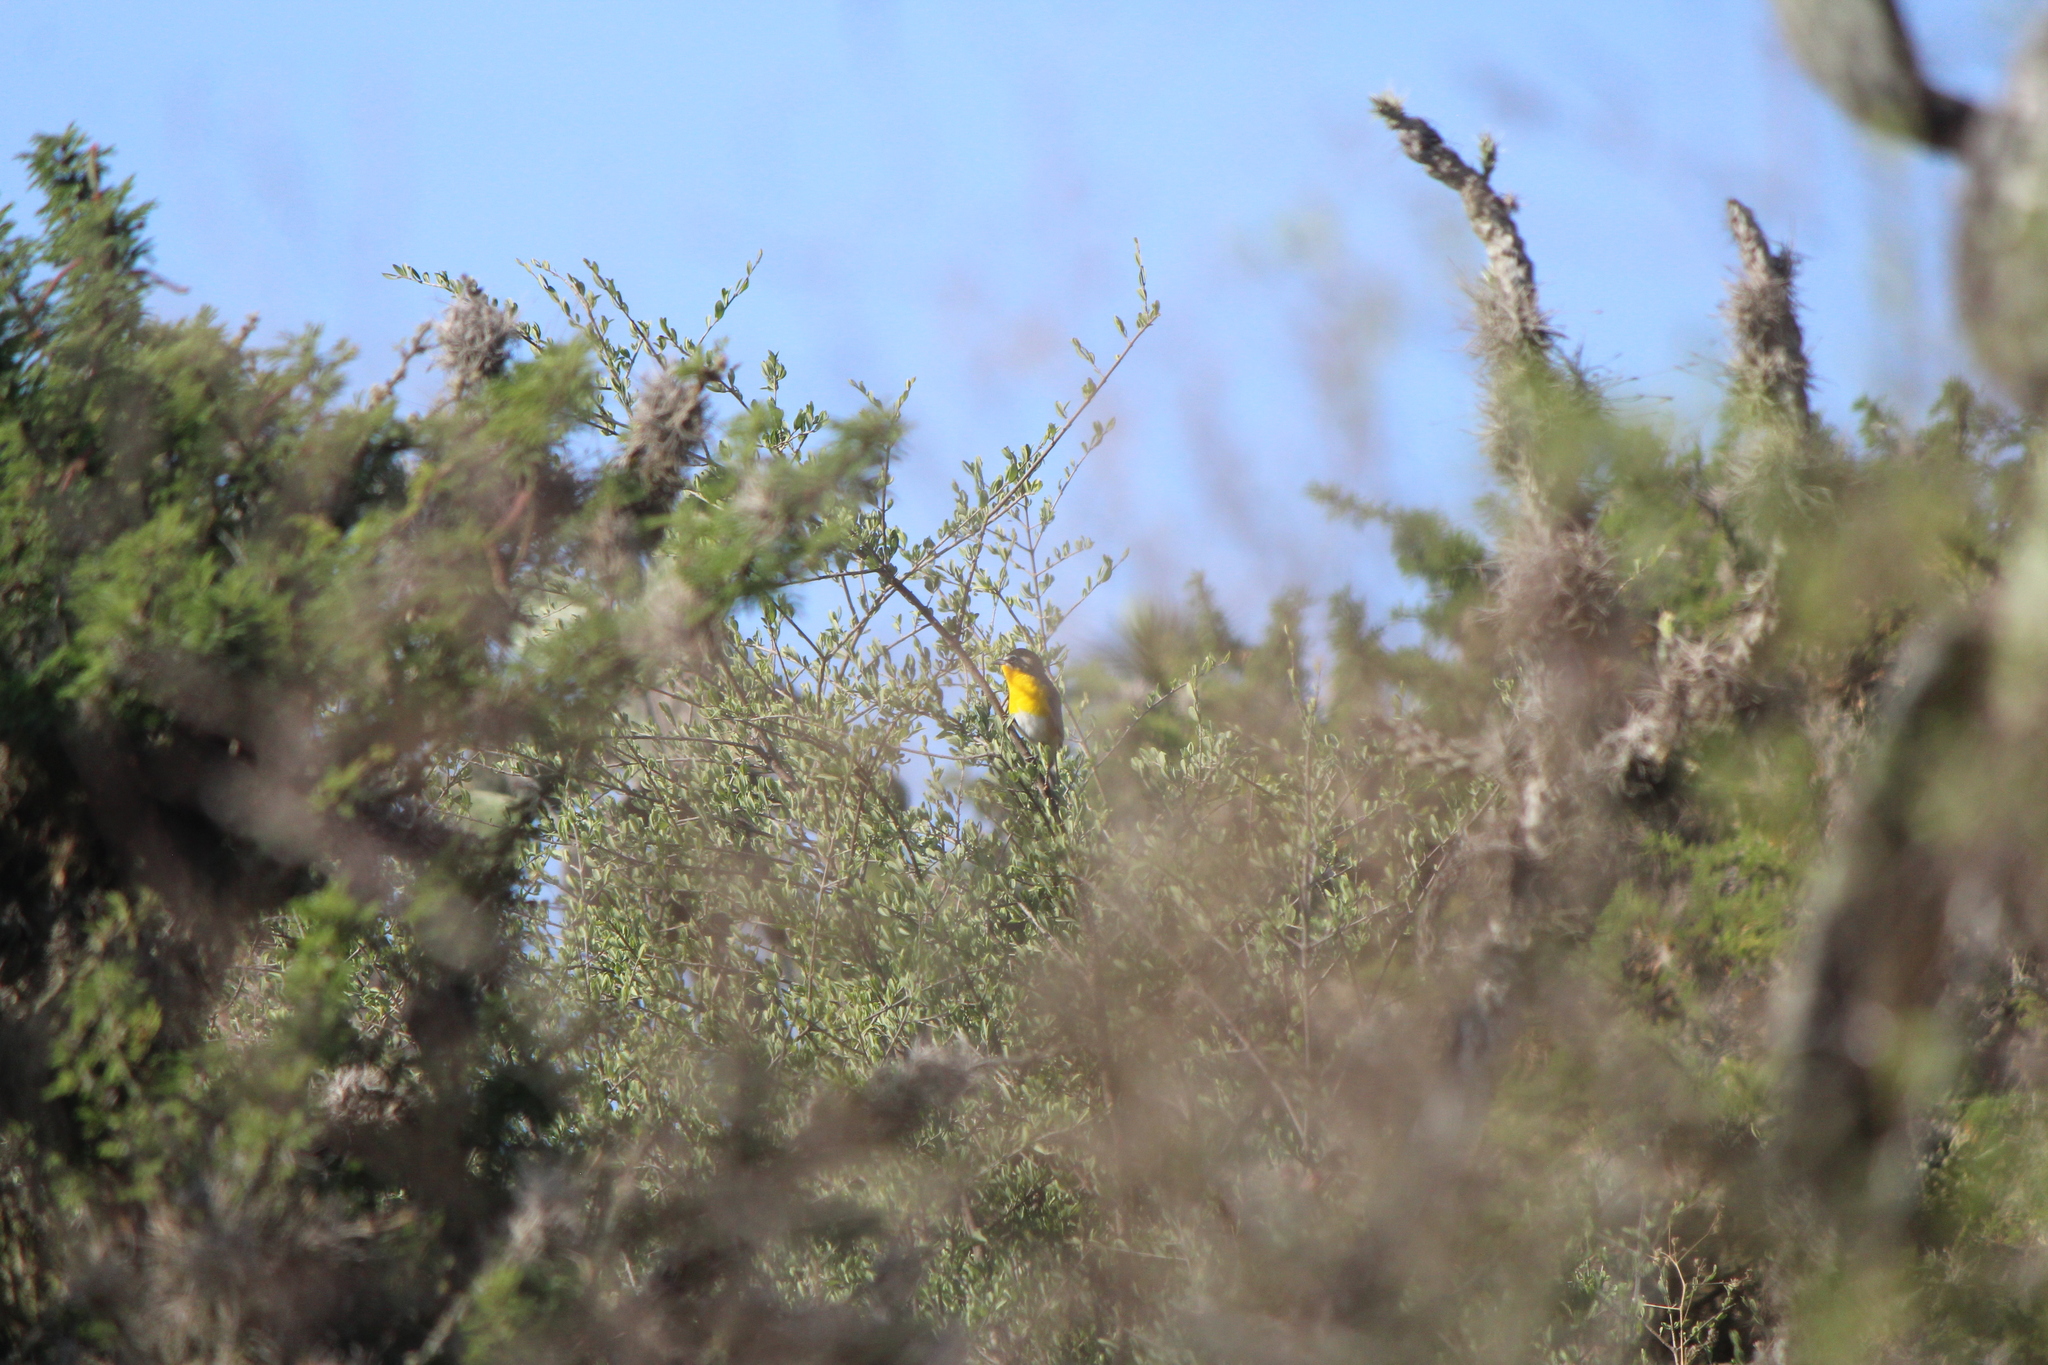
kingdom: Animalia
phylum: Chordata
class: Aves
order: Passeriformes
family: Parulidae
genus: Icteria
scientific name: Icteria virens
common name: Yellow-breasted chat
